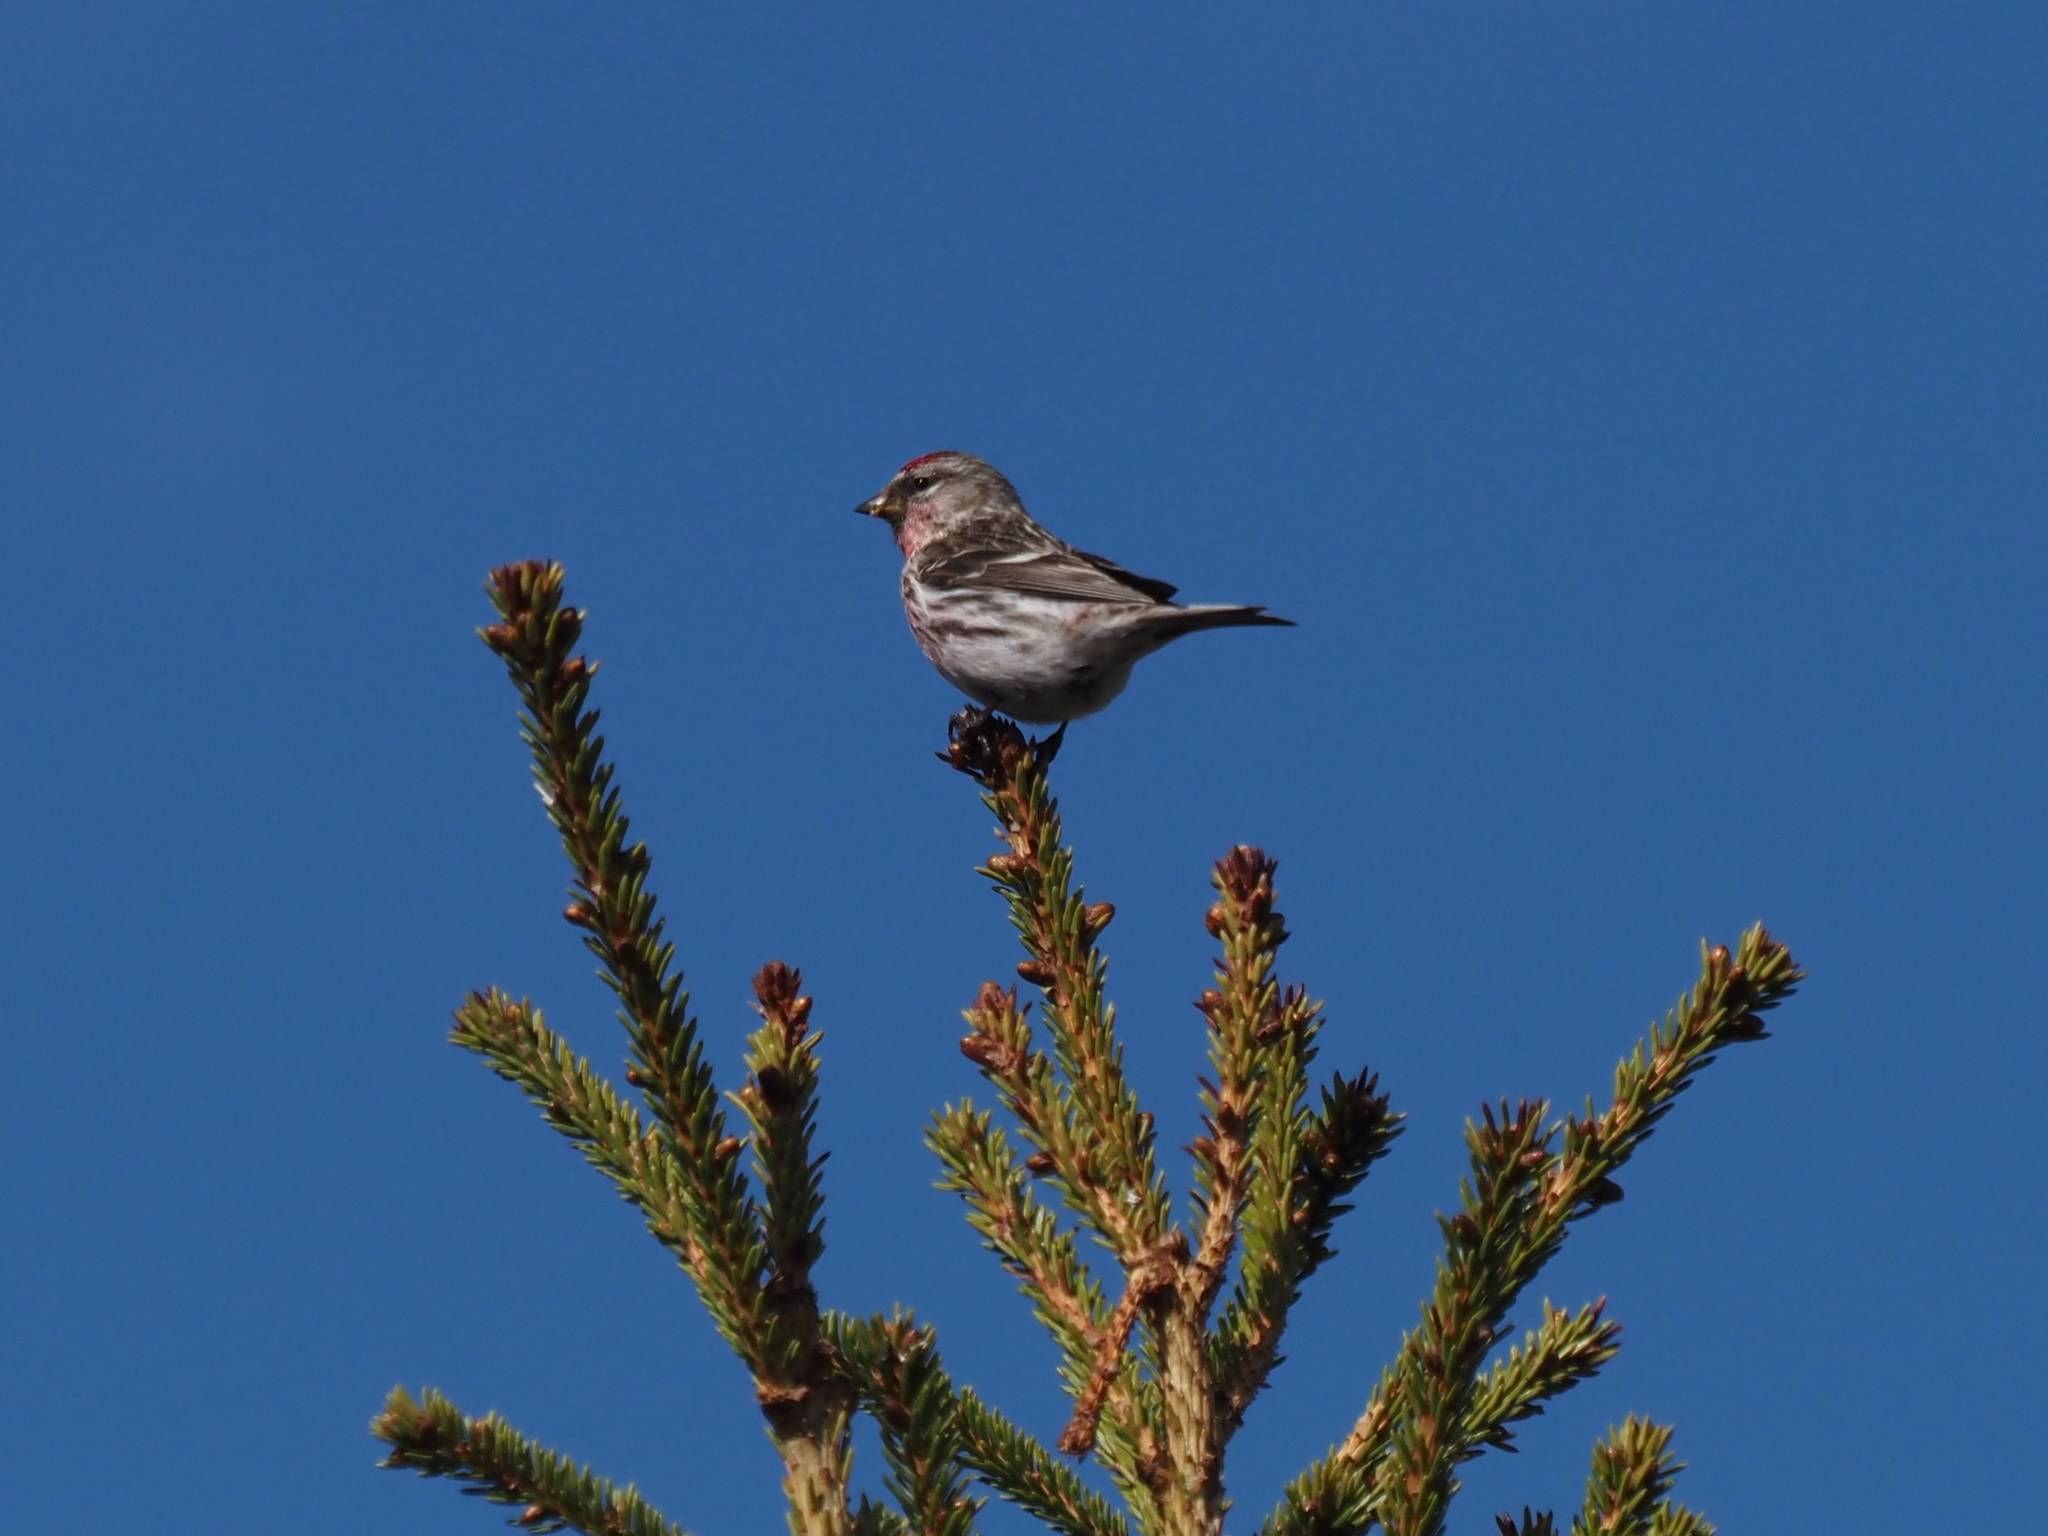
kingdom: Animalia
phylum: Chordata
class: Aves
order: Passeriformes
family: Fringillidae
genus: Acanthis
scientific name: Acanthis flammea
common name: Common redpoll
